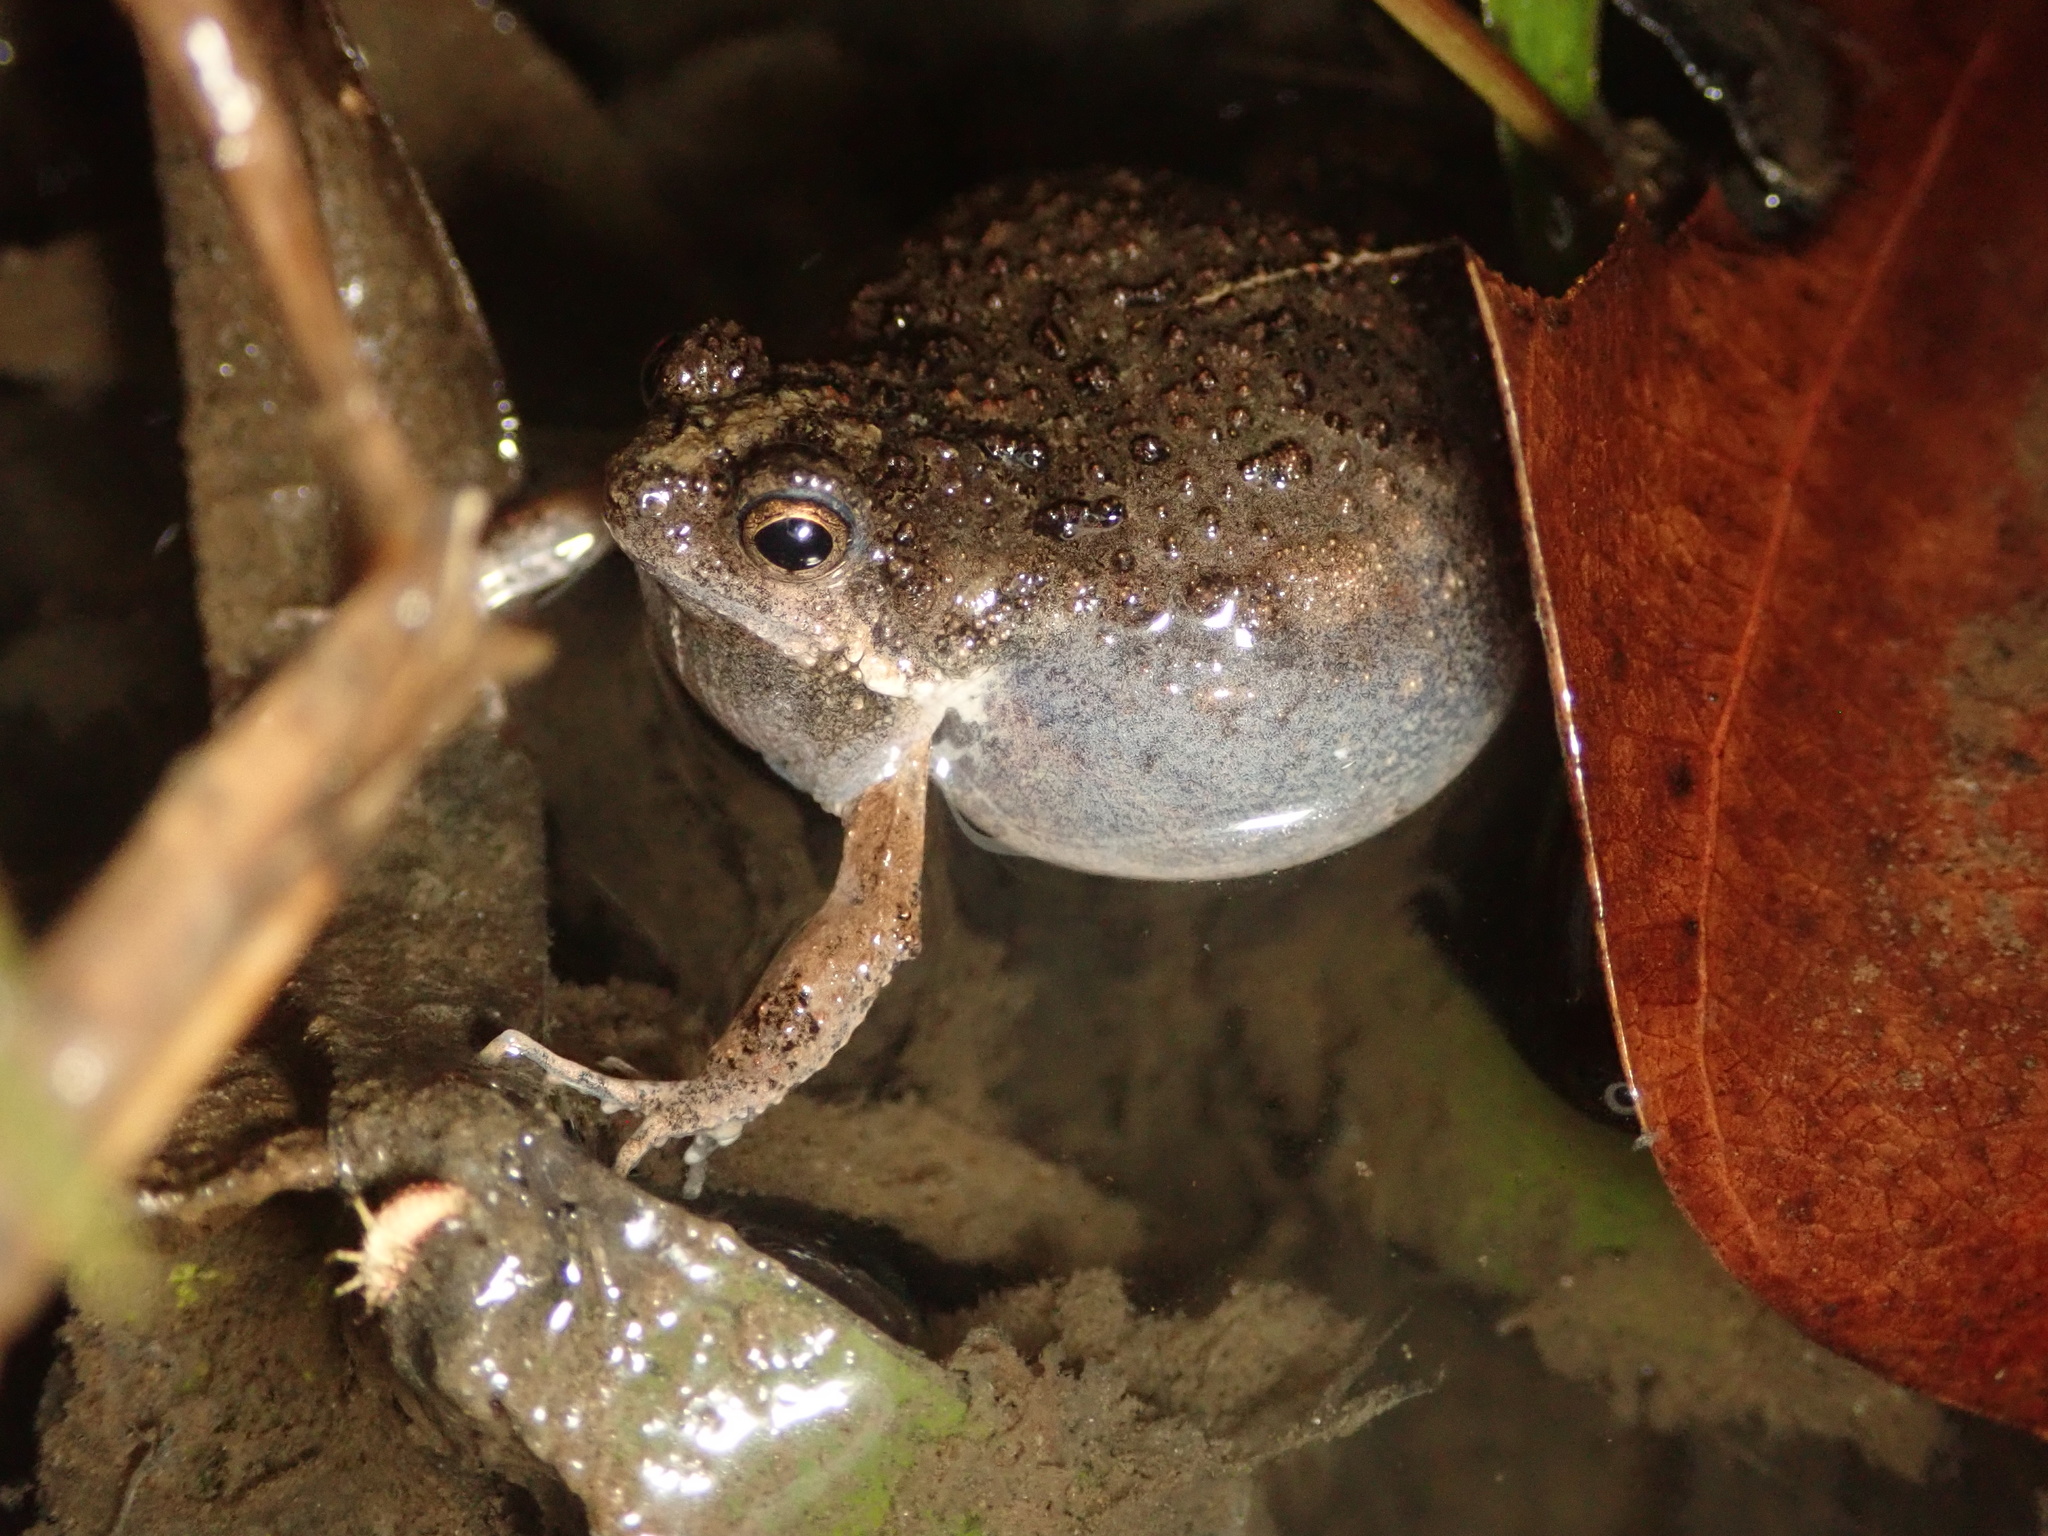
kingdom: Animalia
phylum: Chordata
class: Amphibia
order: Anura
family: Leptodactylidae
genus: Engystomops
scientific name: Engystomops pustulosus
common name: Tungara frog
